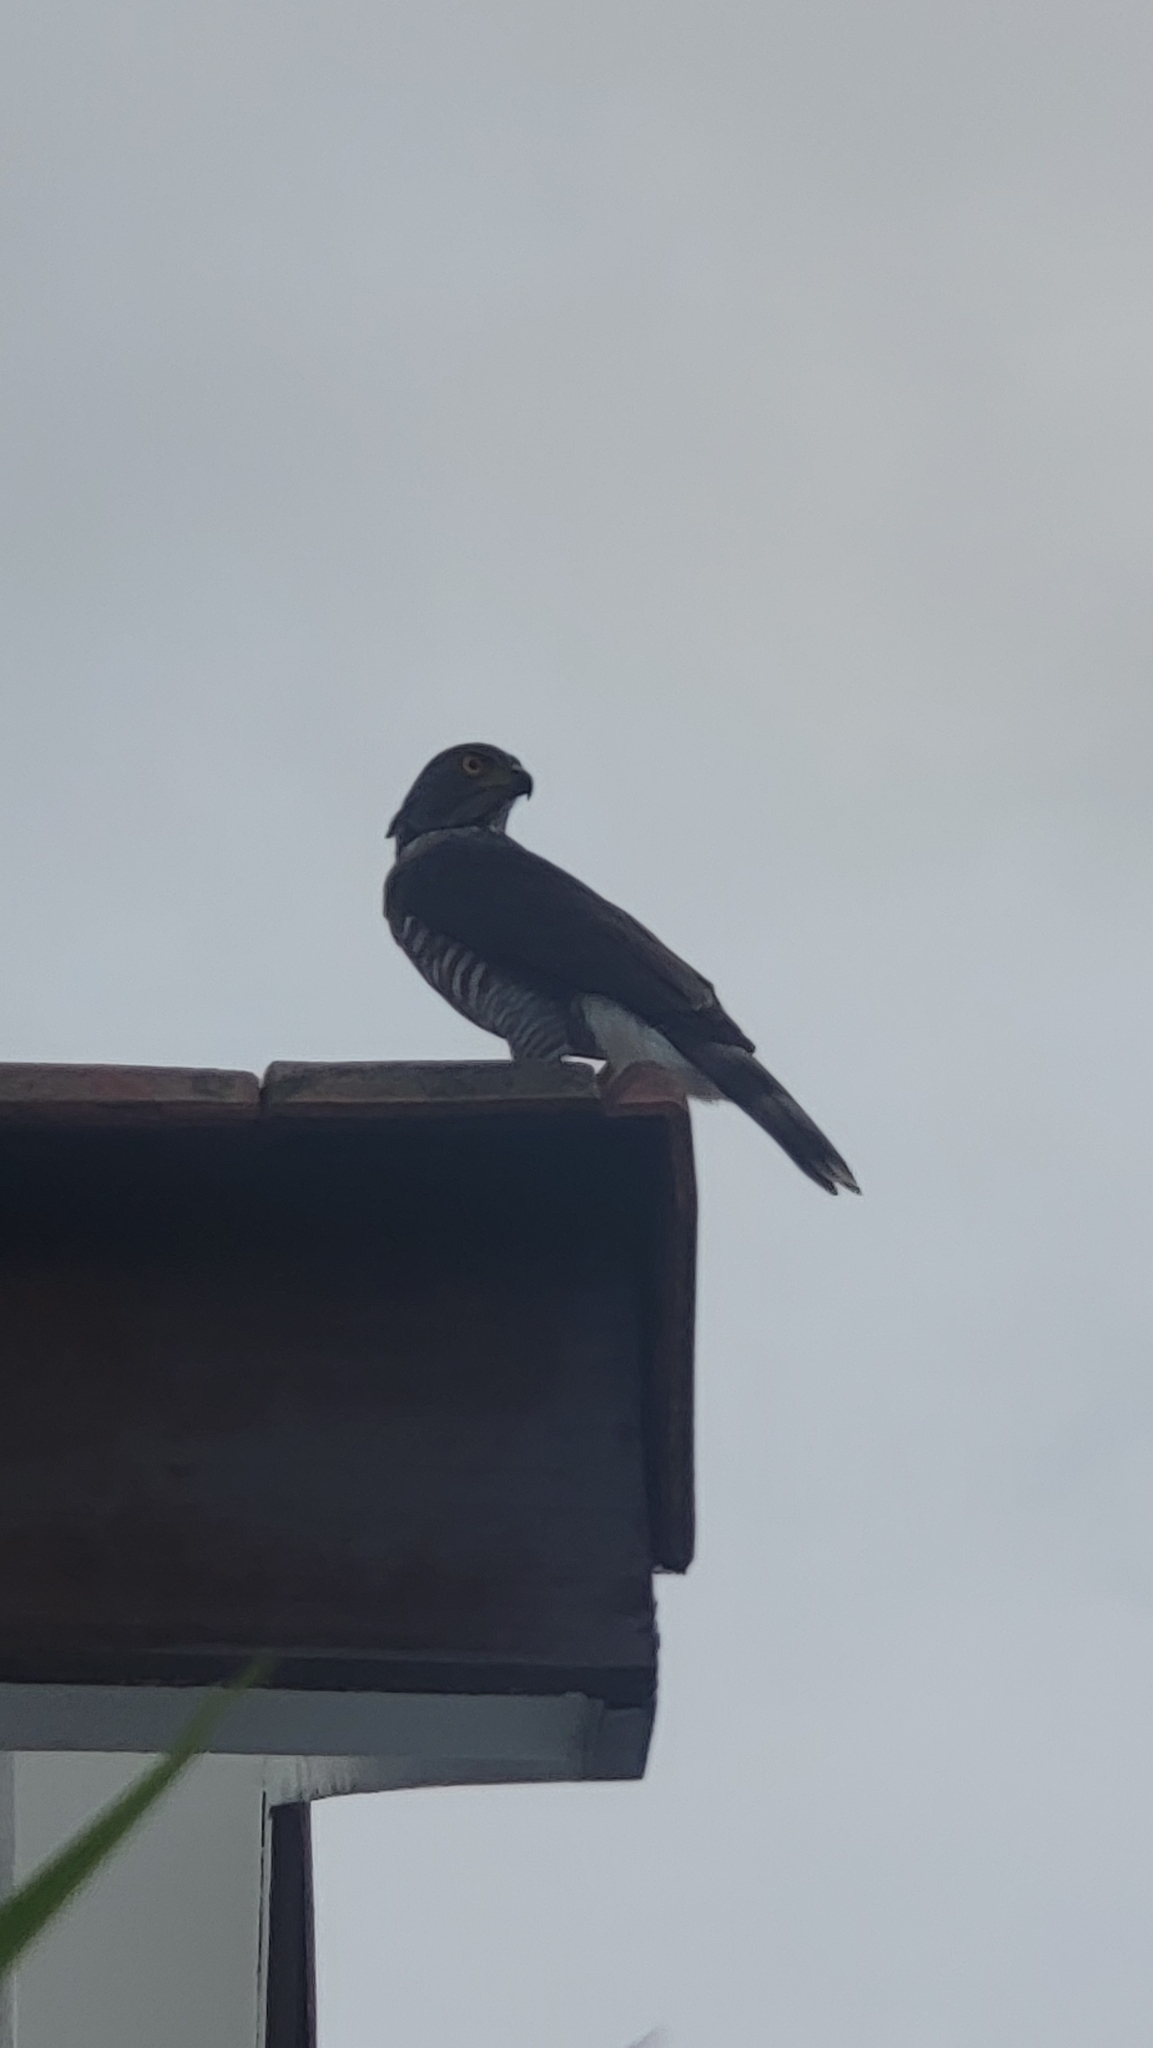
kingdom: Animalia
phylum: Chordata
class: Aves
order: Accipitriformes
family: Accipitridae
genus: Accipiter
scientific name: Accipiter trivirgatus
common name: Crested goshawk
